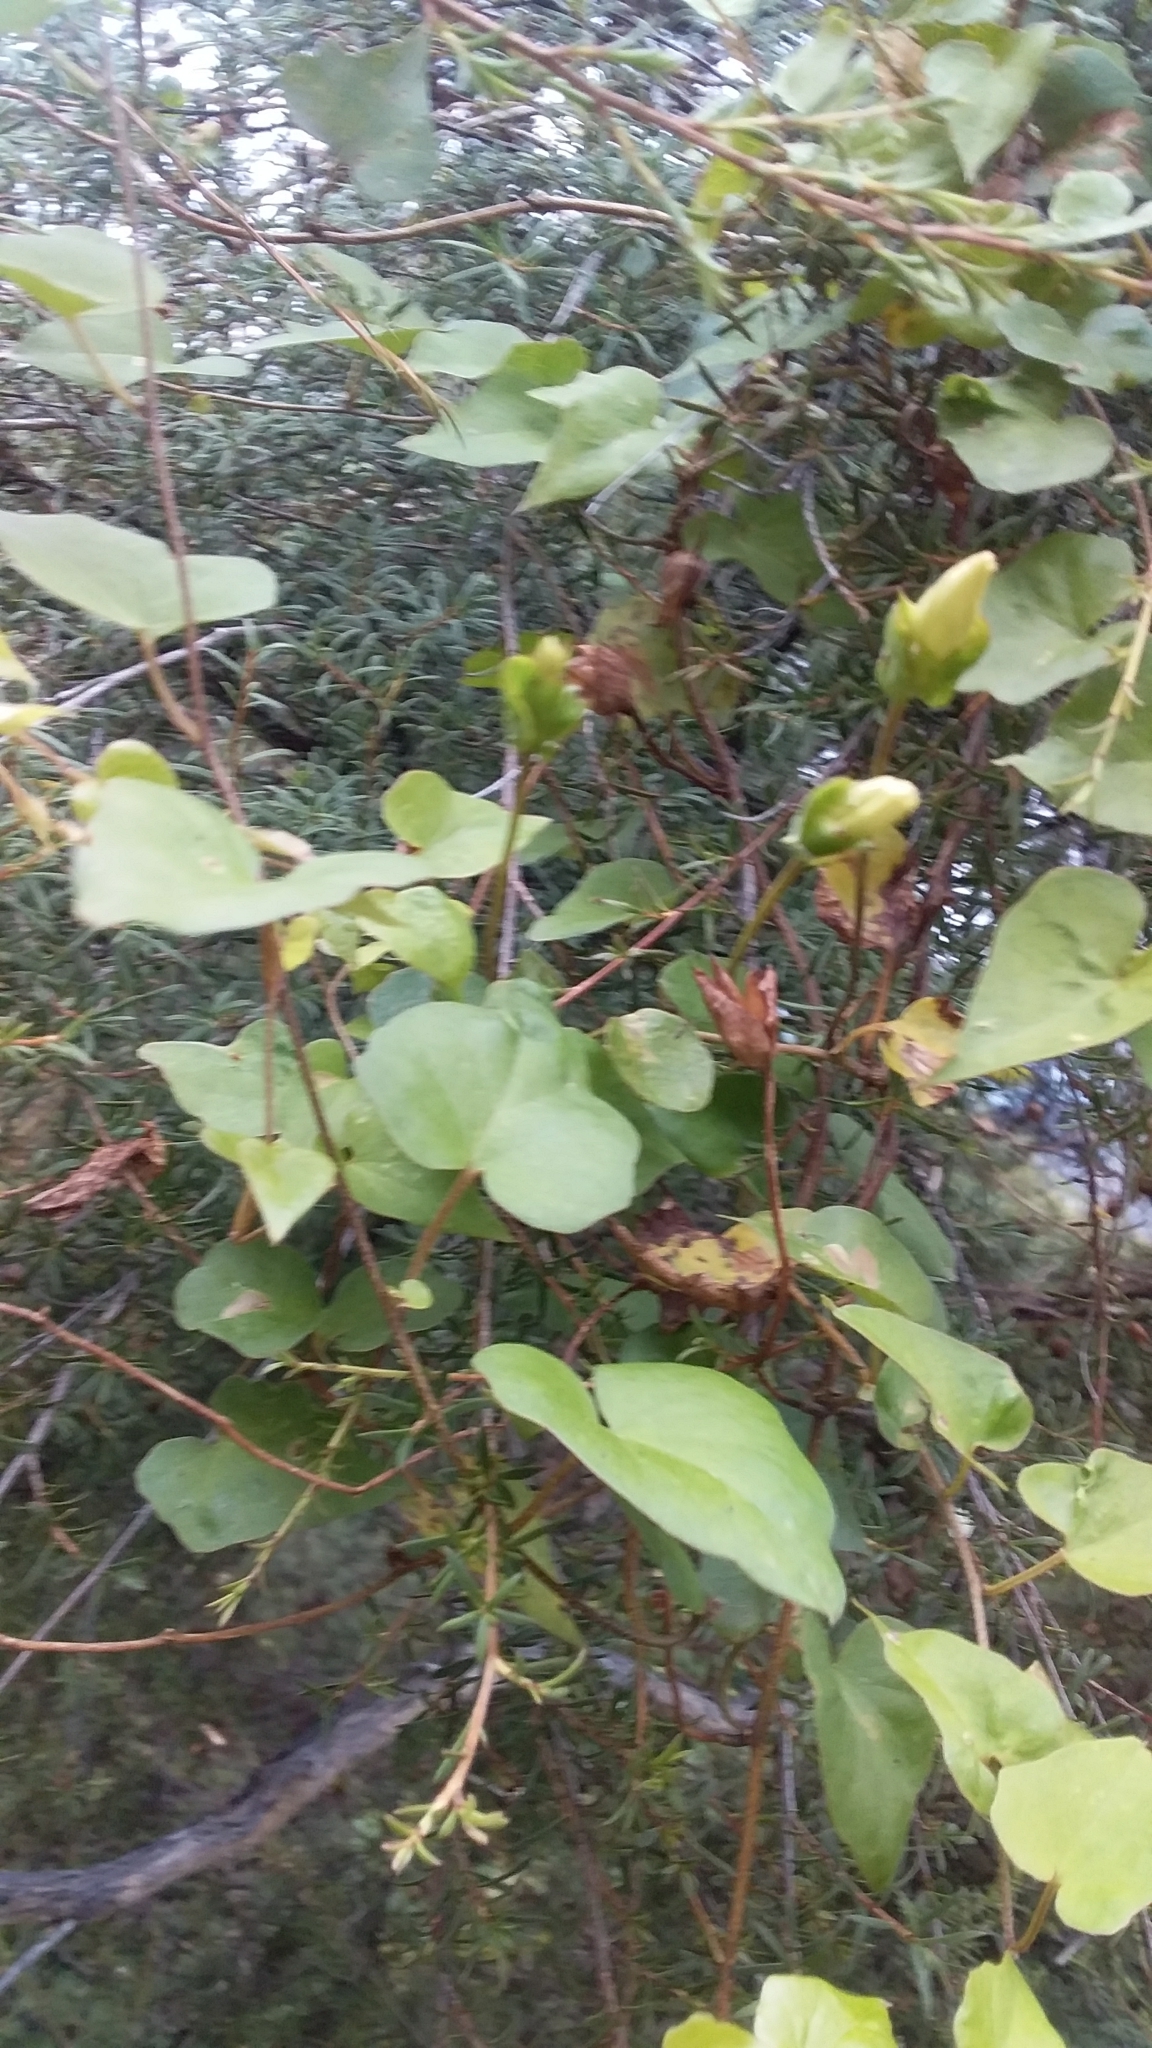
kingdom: Plantae
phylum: Tracheophyta
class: Magnoliopsida
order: Solanales
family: Convolvulaceae
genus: Calystegia
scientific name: Calystegia tuguriorum
